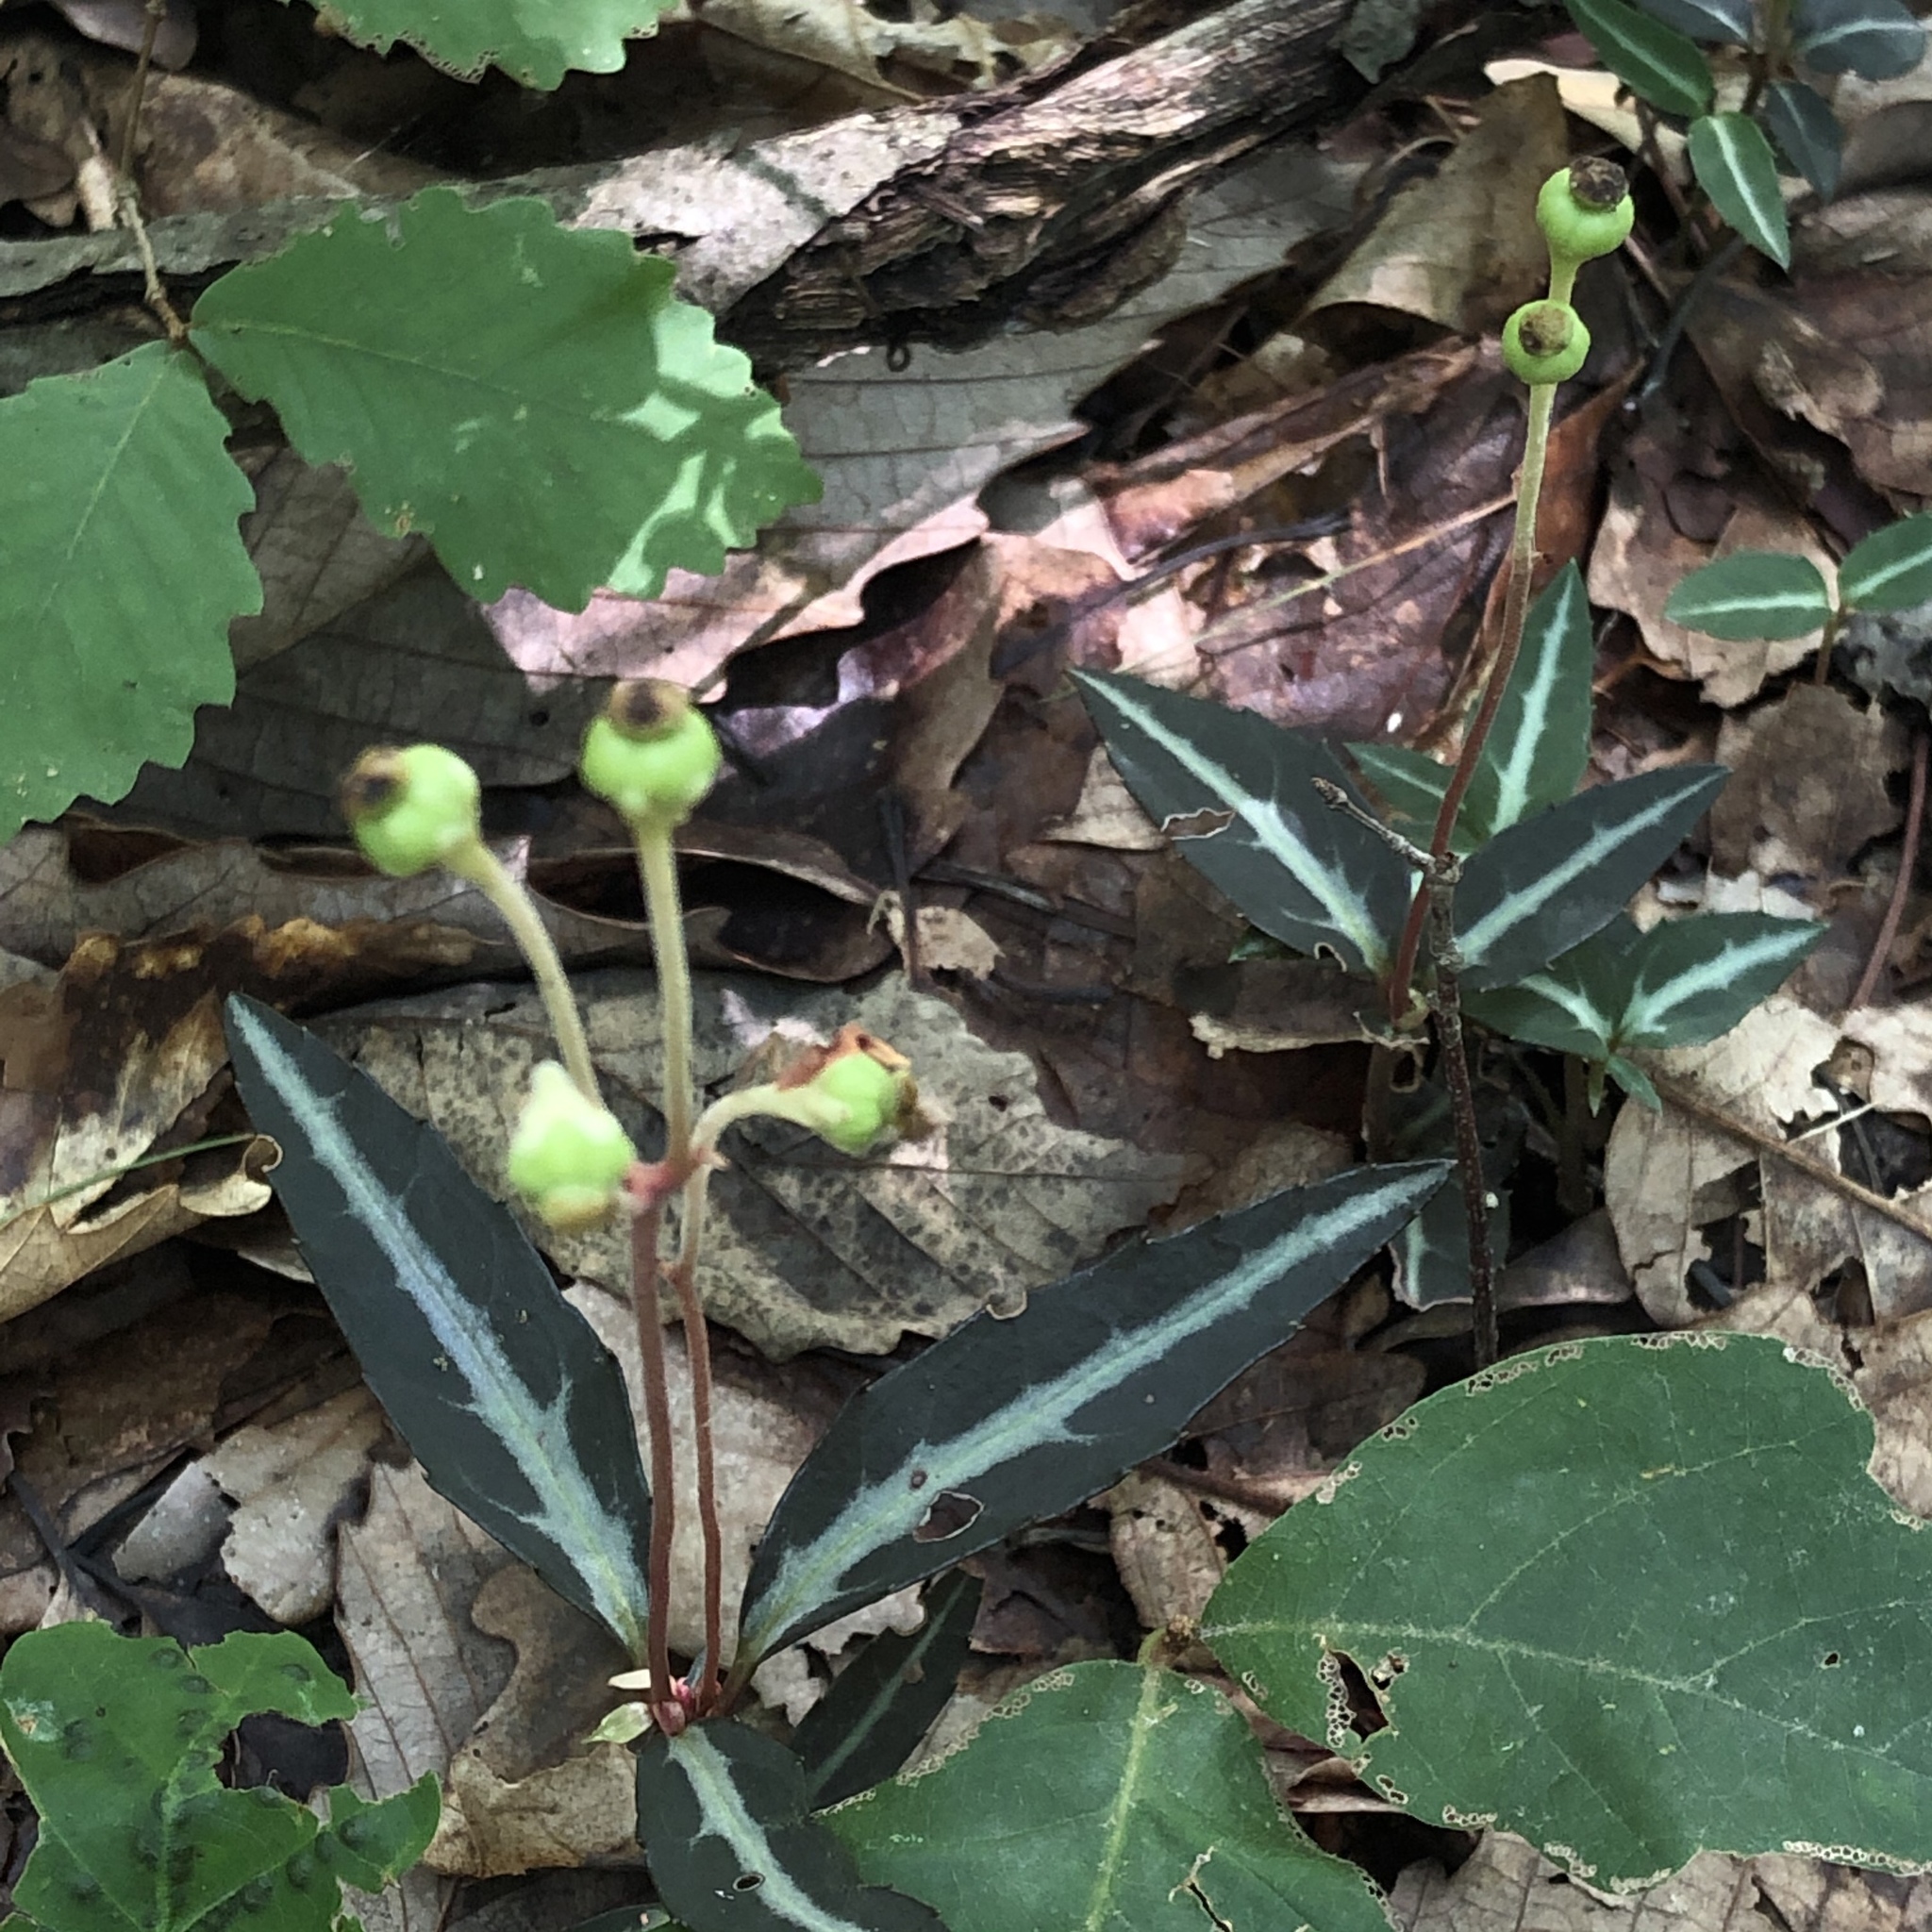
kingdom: Plantae
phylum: Tracheophyta
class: Magnoliopsida
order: Ericales
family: Ericaceae
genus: Chimaphila
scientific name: Chimaphila maculata
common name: Spotted pipsissewa
